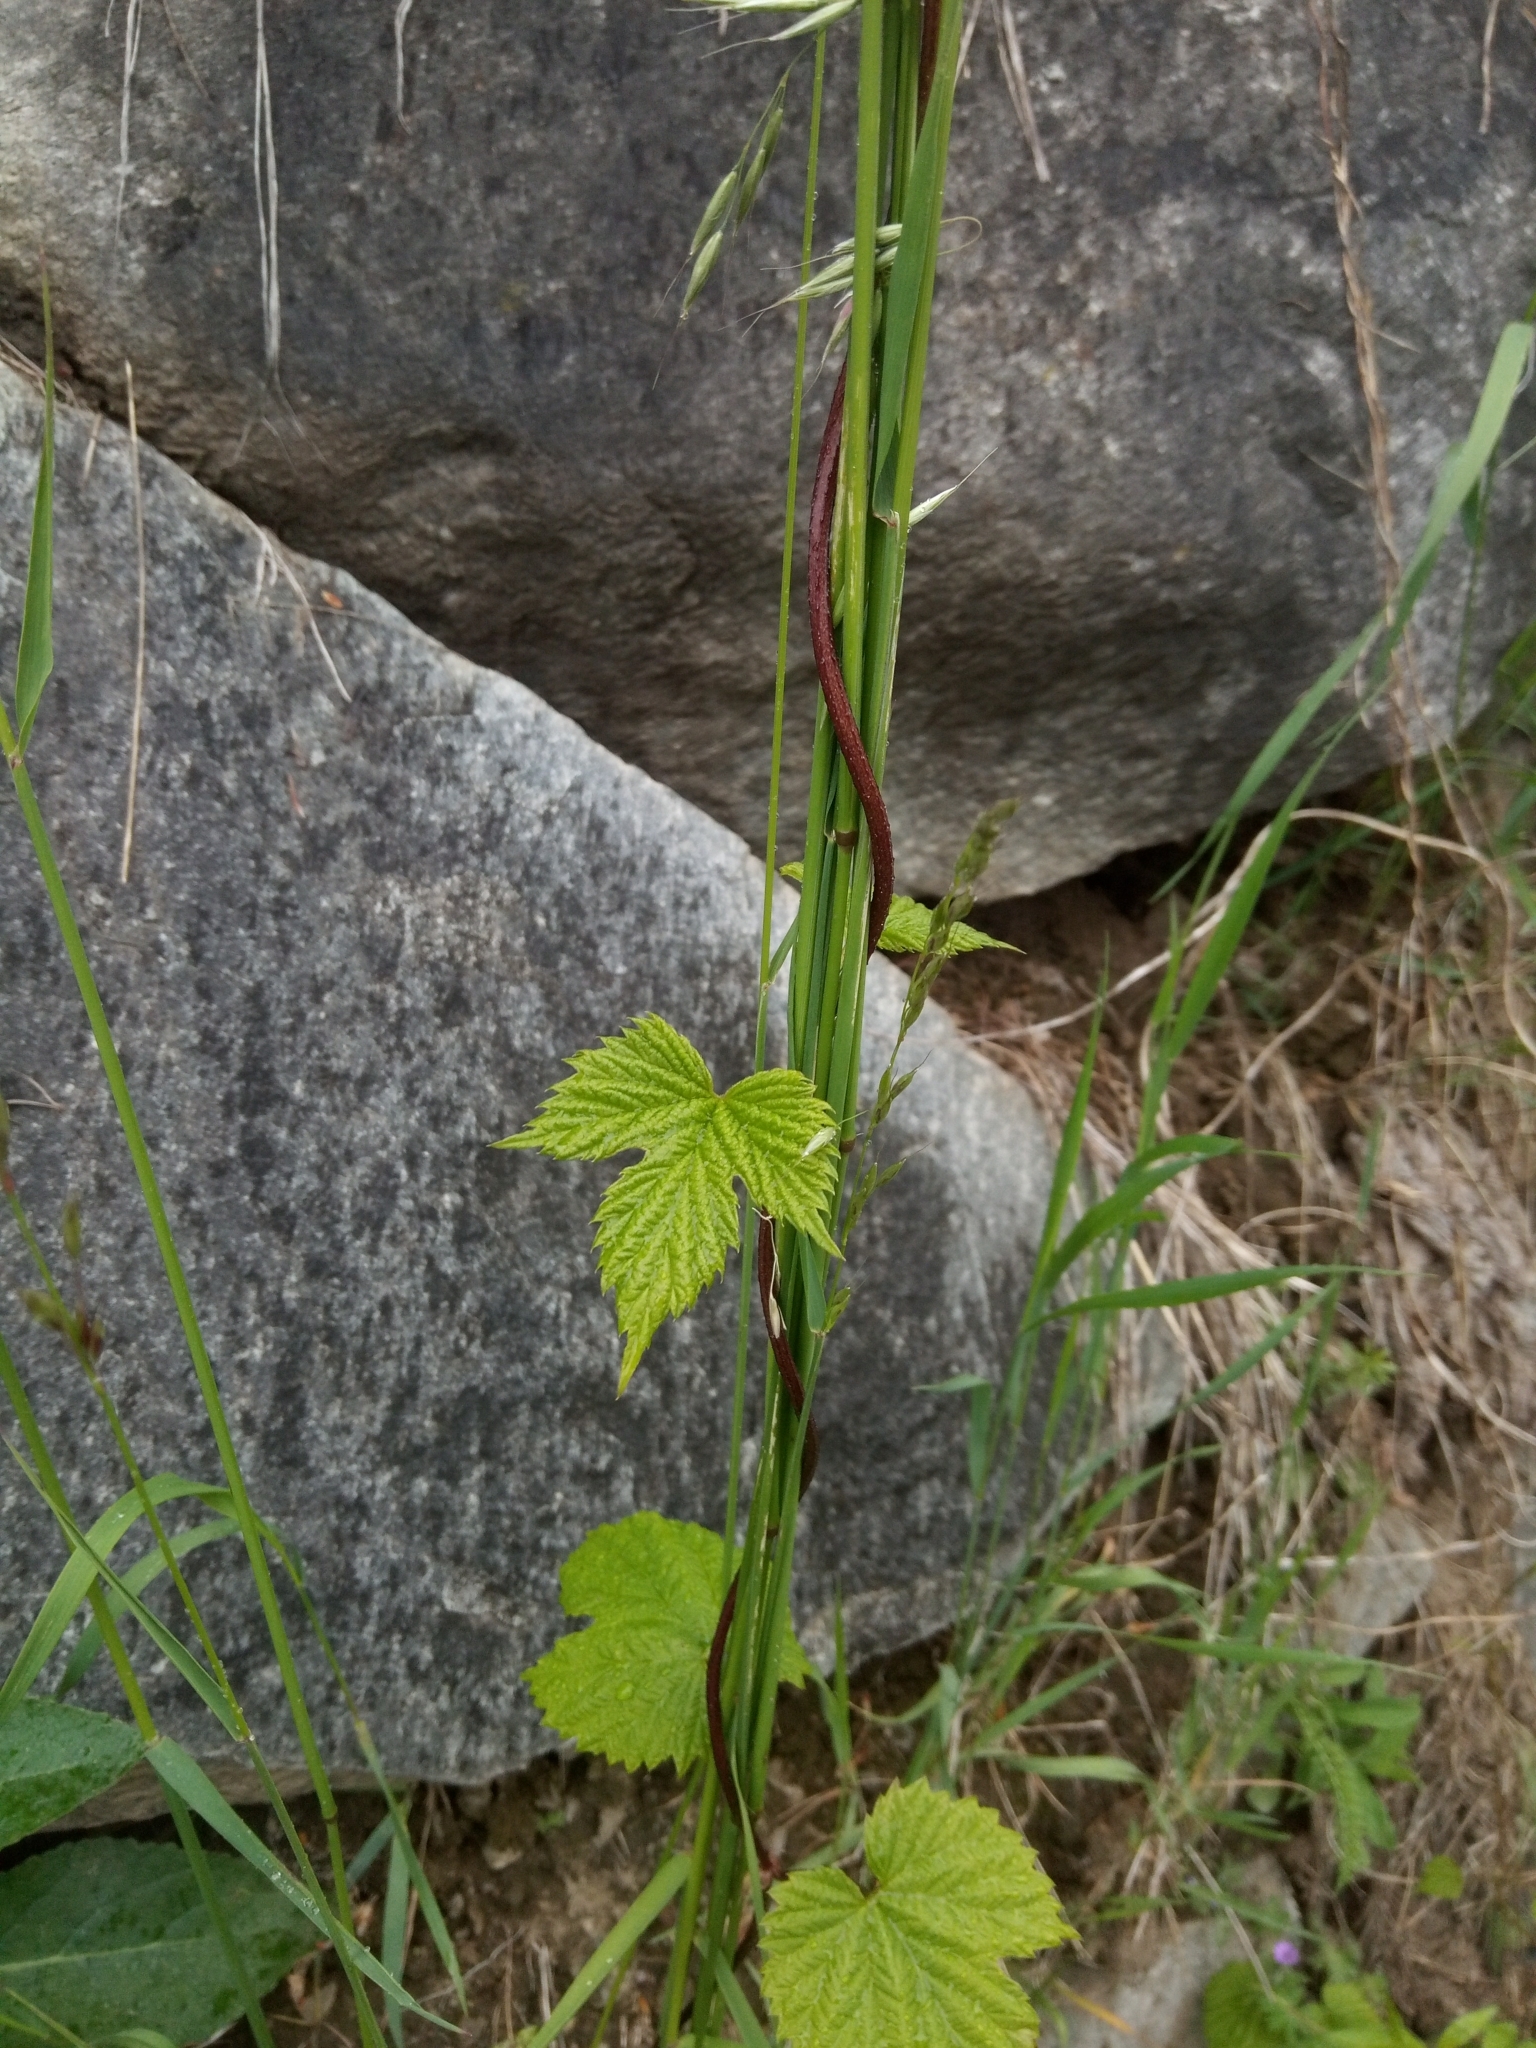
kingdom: Plantae
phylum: Tracheophyta
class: Magnoliopsida
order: Rosales
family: Cannabaceae
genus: Humulus
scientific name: Humulus lupulus
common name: Hop
